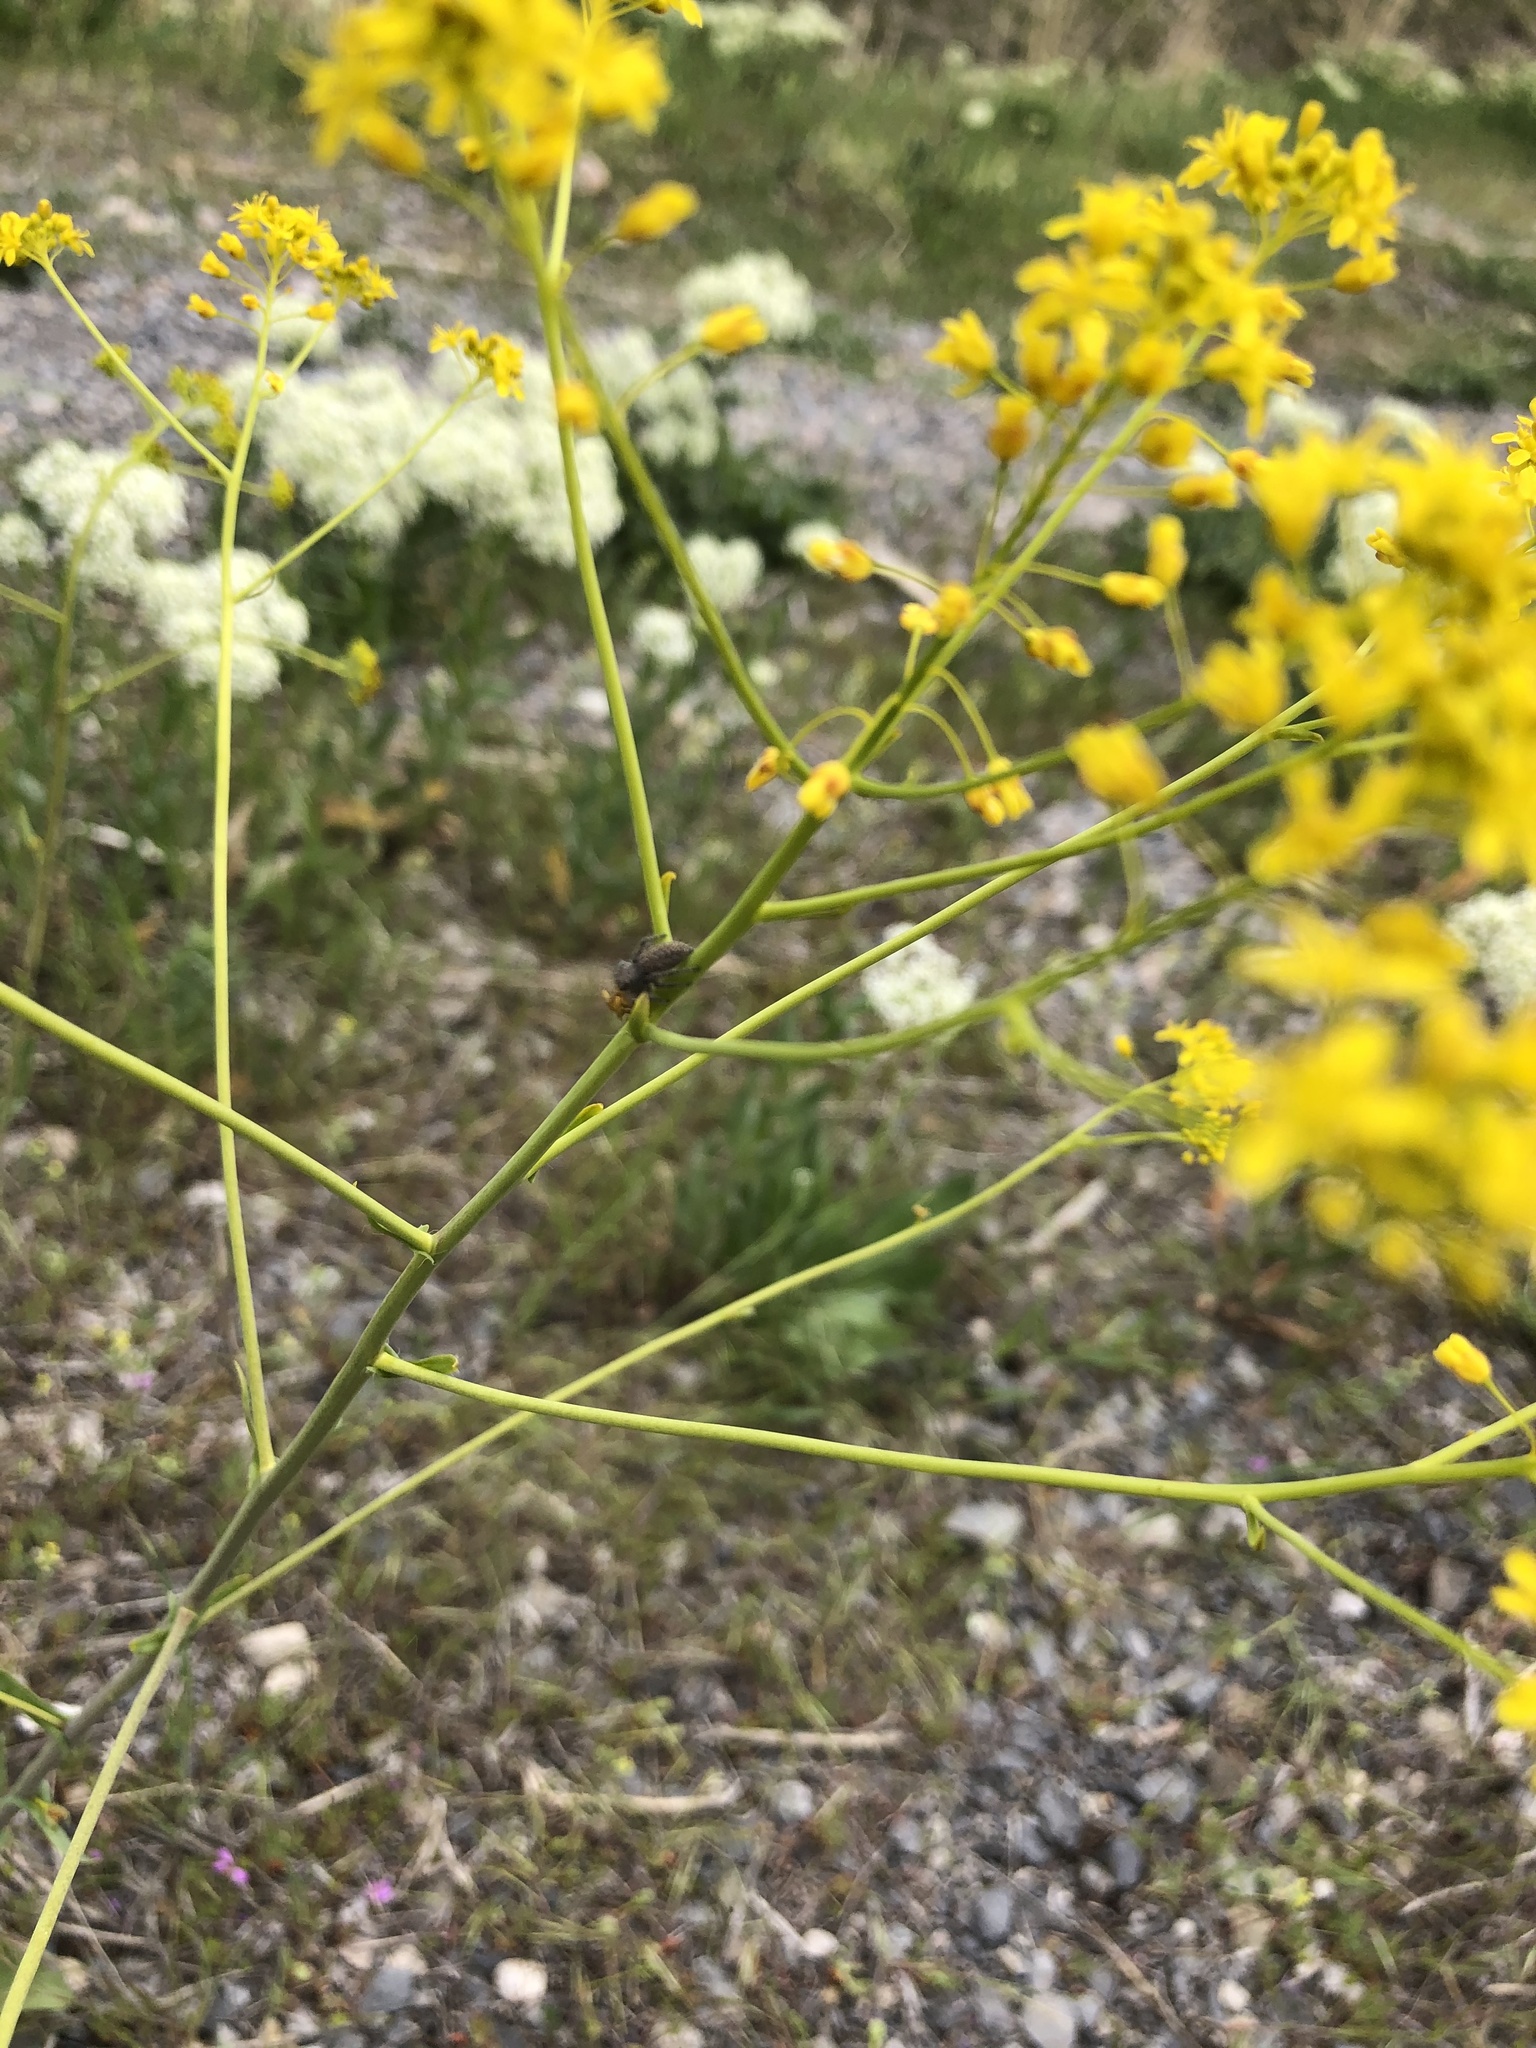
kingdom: Animalia
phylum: Arthropoda
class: Arachnida
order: Araneae
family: Salticidae
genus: Phidippus
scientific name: Phidippus octopunctatus
